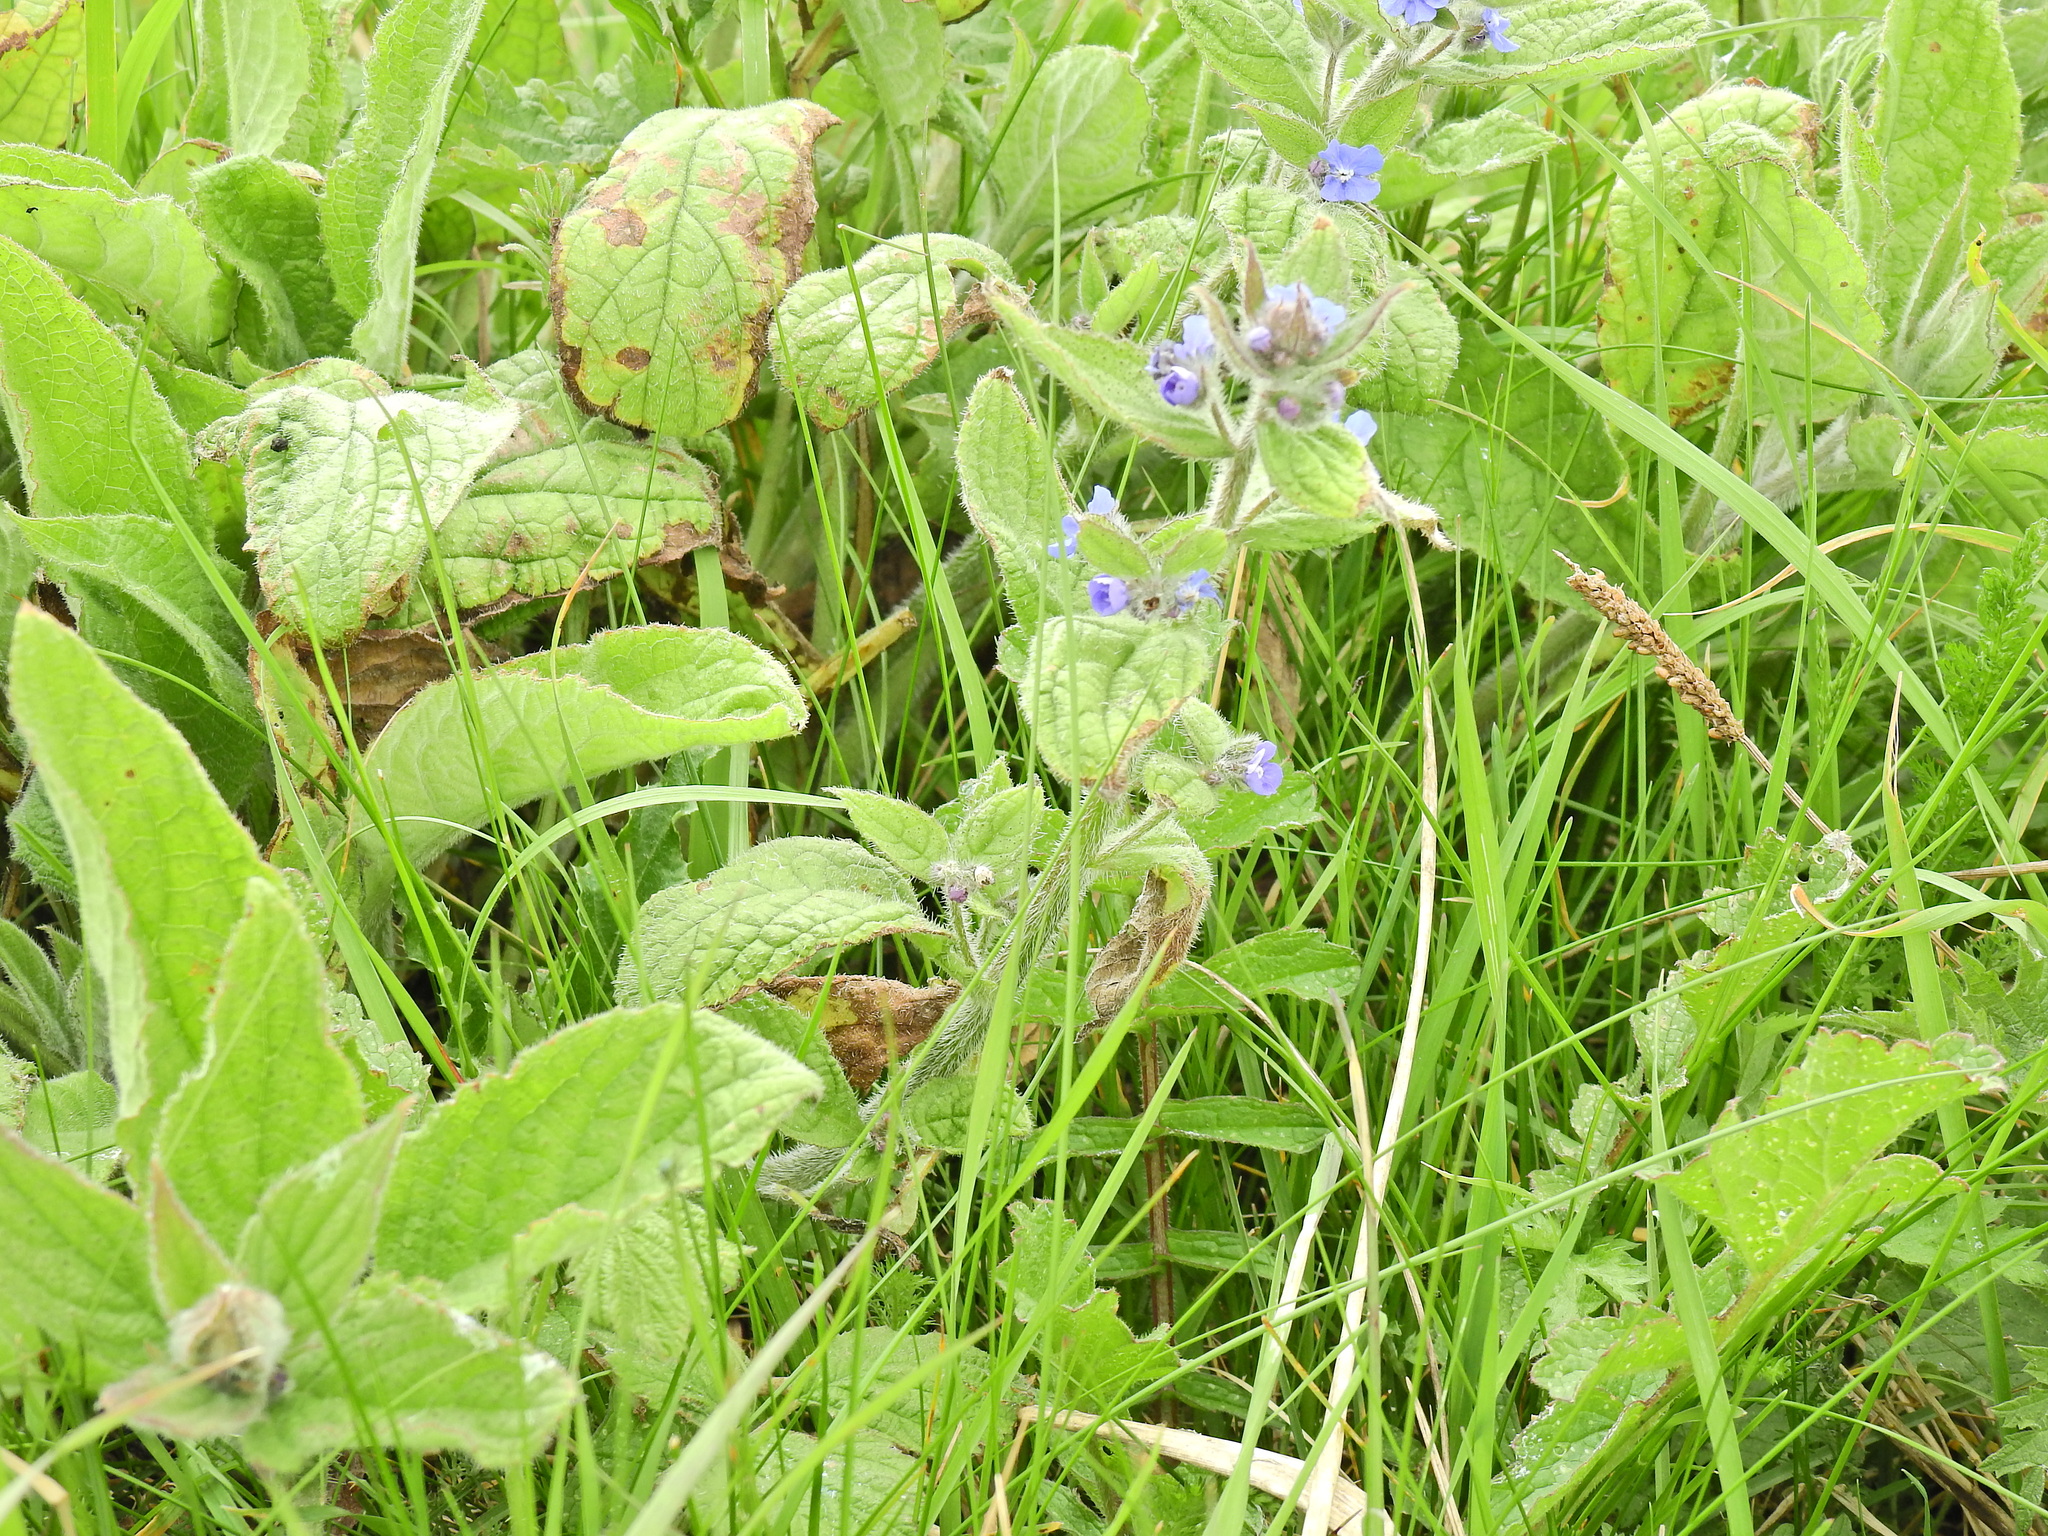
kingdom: Plantae
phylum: Tracheophyta
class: Magnoliopsida
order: Boraginales
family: Boraginaceae
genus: Pentaglottis
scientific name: Pentaglottis sempervirens
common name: Green alkanet
